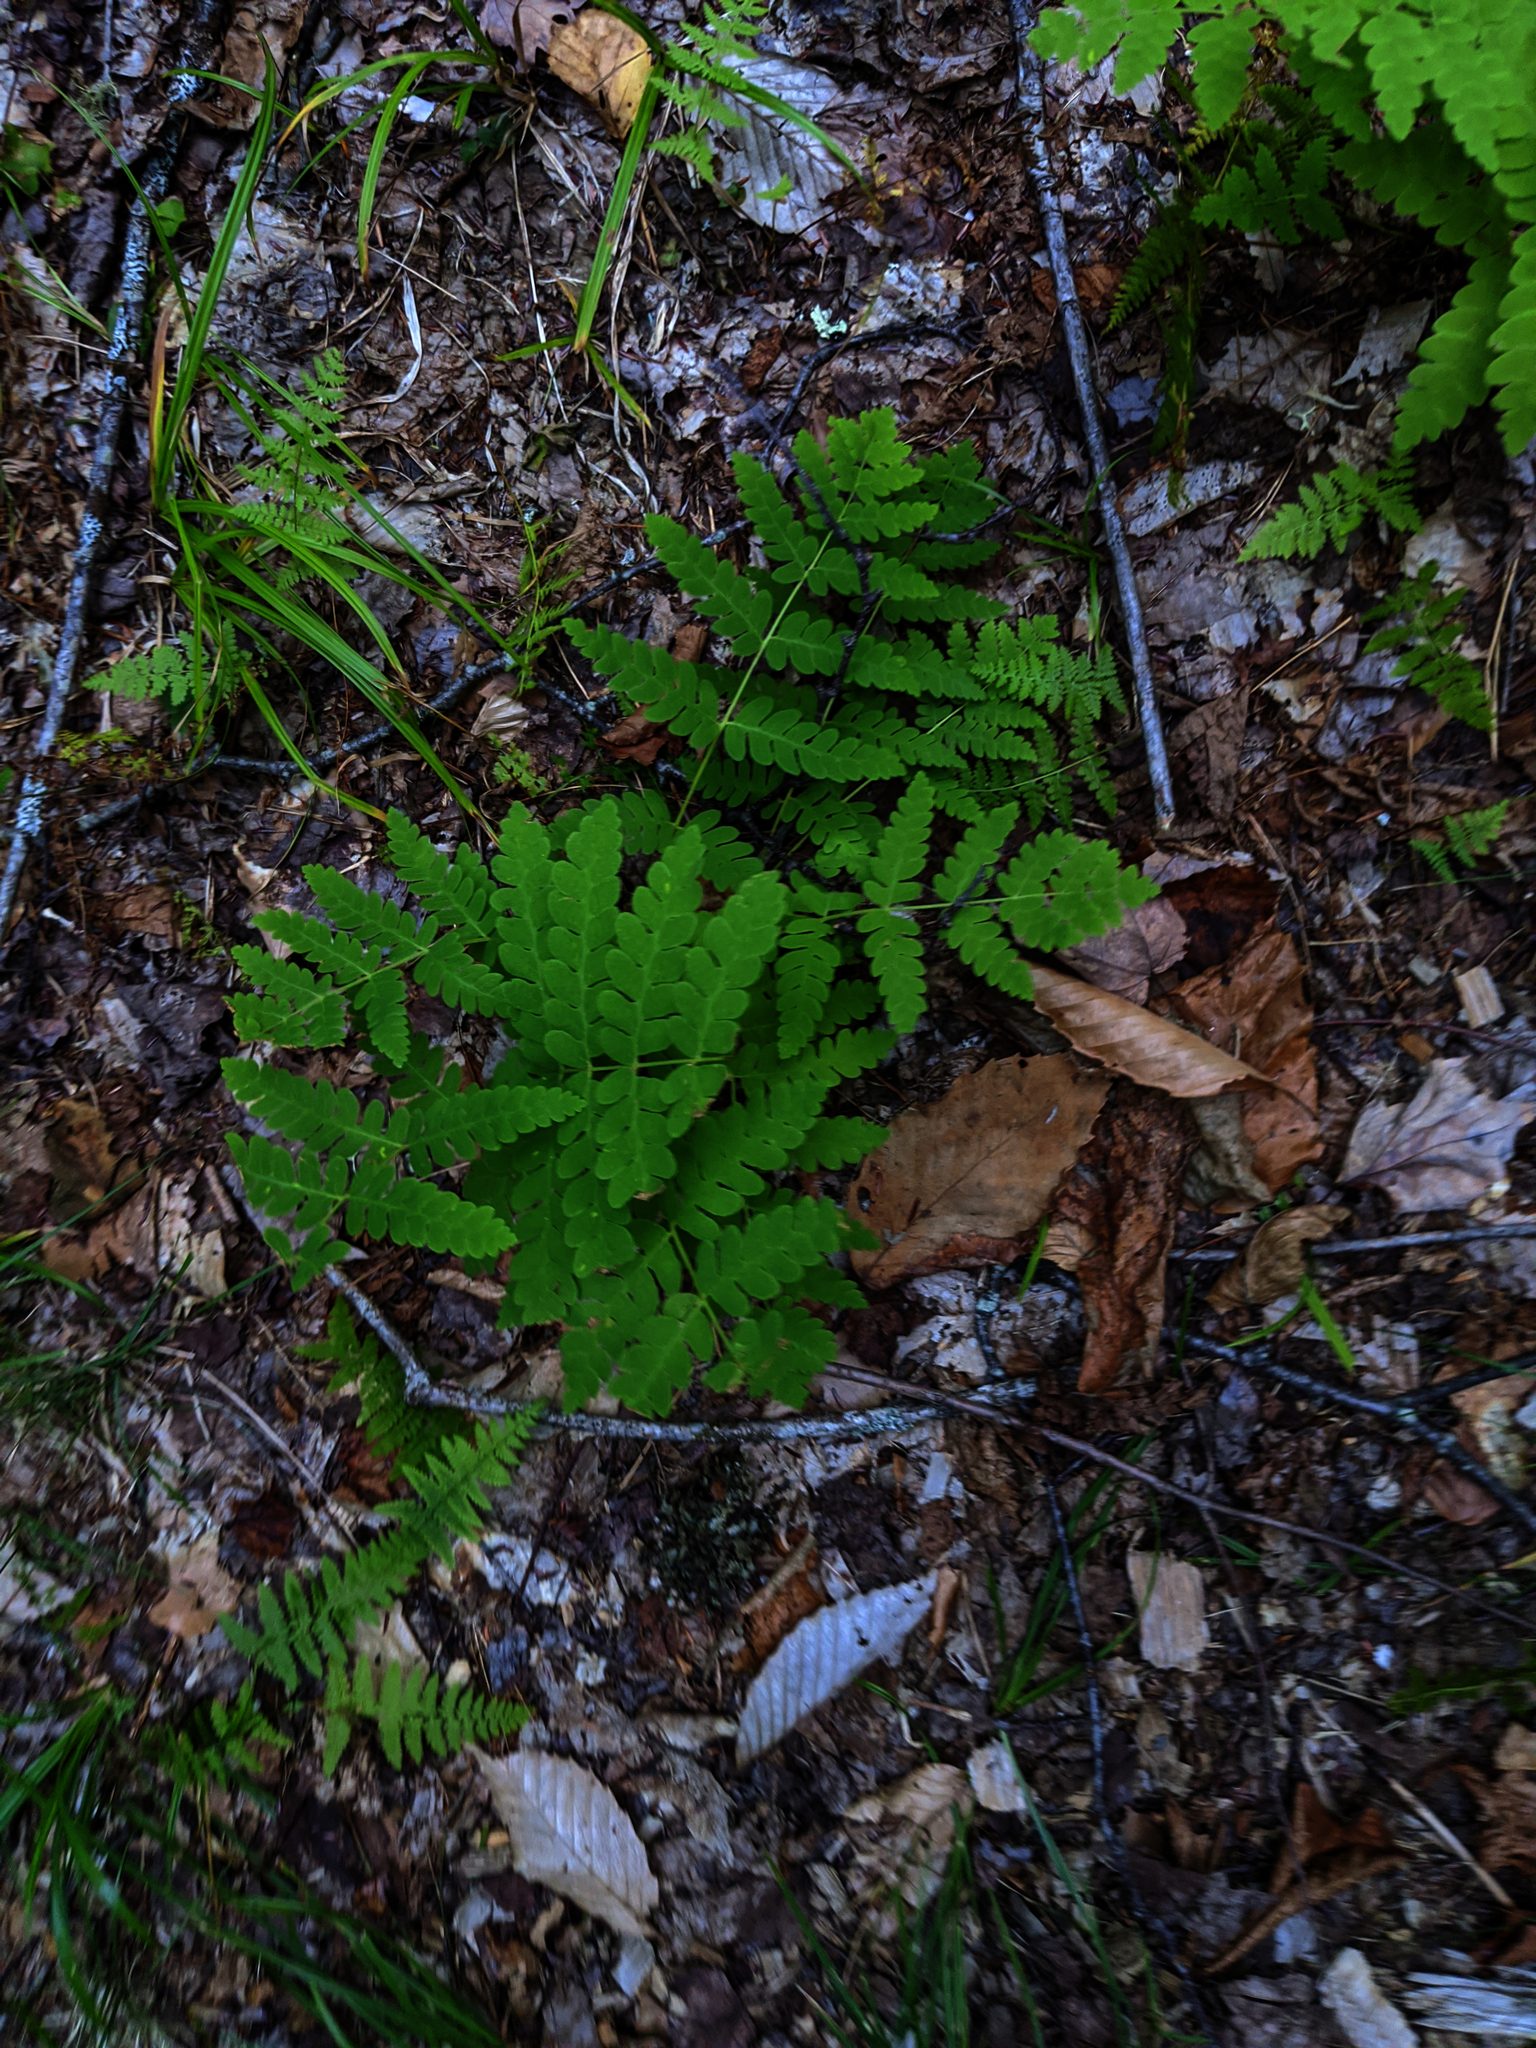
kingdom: Plantae
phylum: Tracheophyta
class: Polypodiopsida
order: Osmundales
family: Osmundaceae
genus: Claytosmunda
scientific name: Claytosmunda claytoniana
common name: Clayton's fern
